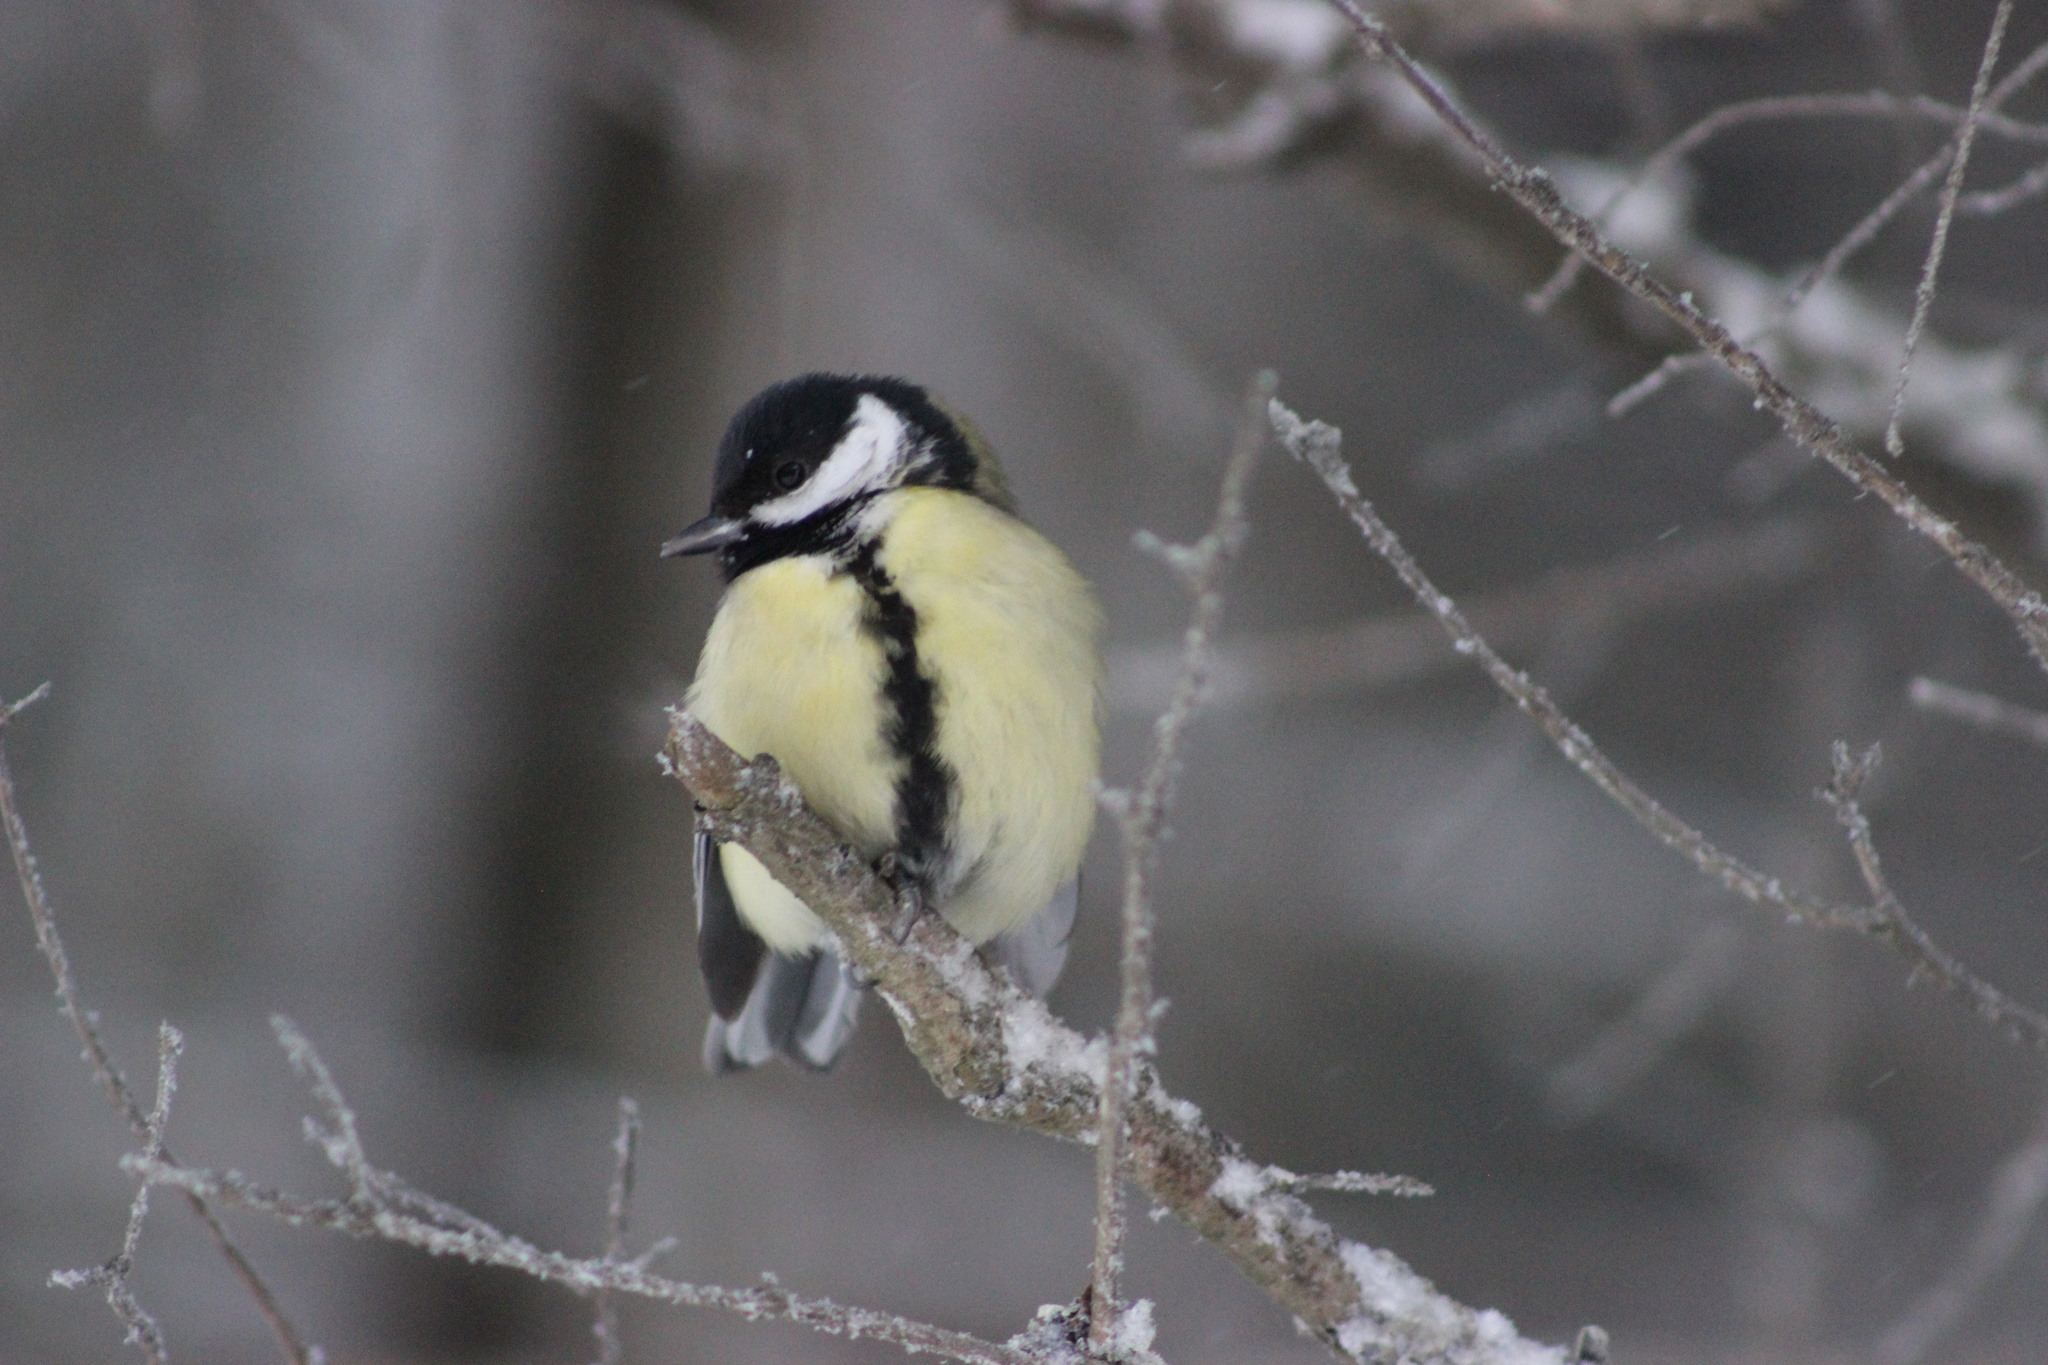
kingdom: Animalia
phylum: Chordata
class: Aves
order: Passeriformes
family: Paridae
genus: Parus
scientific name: Parus major
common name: Great tit
